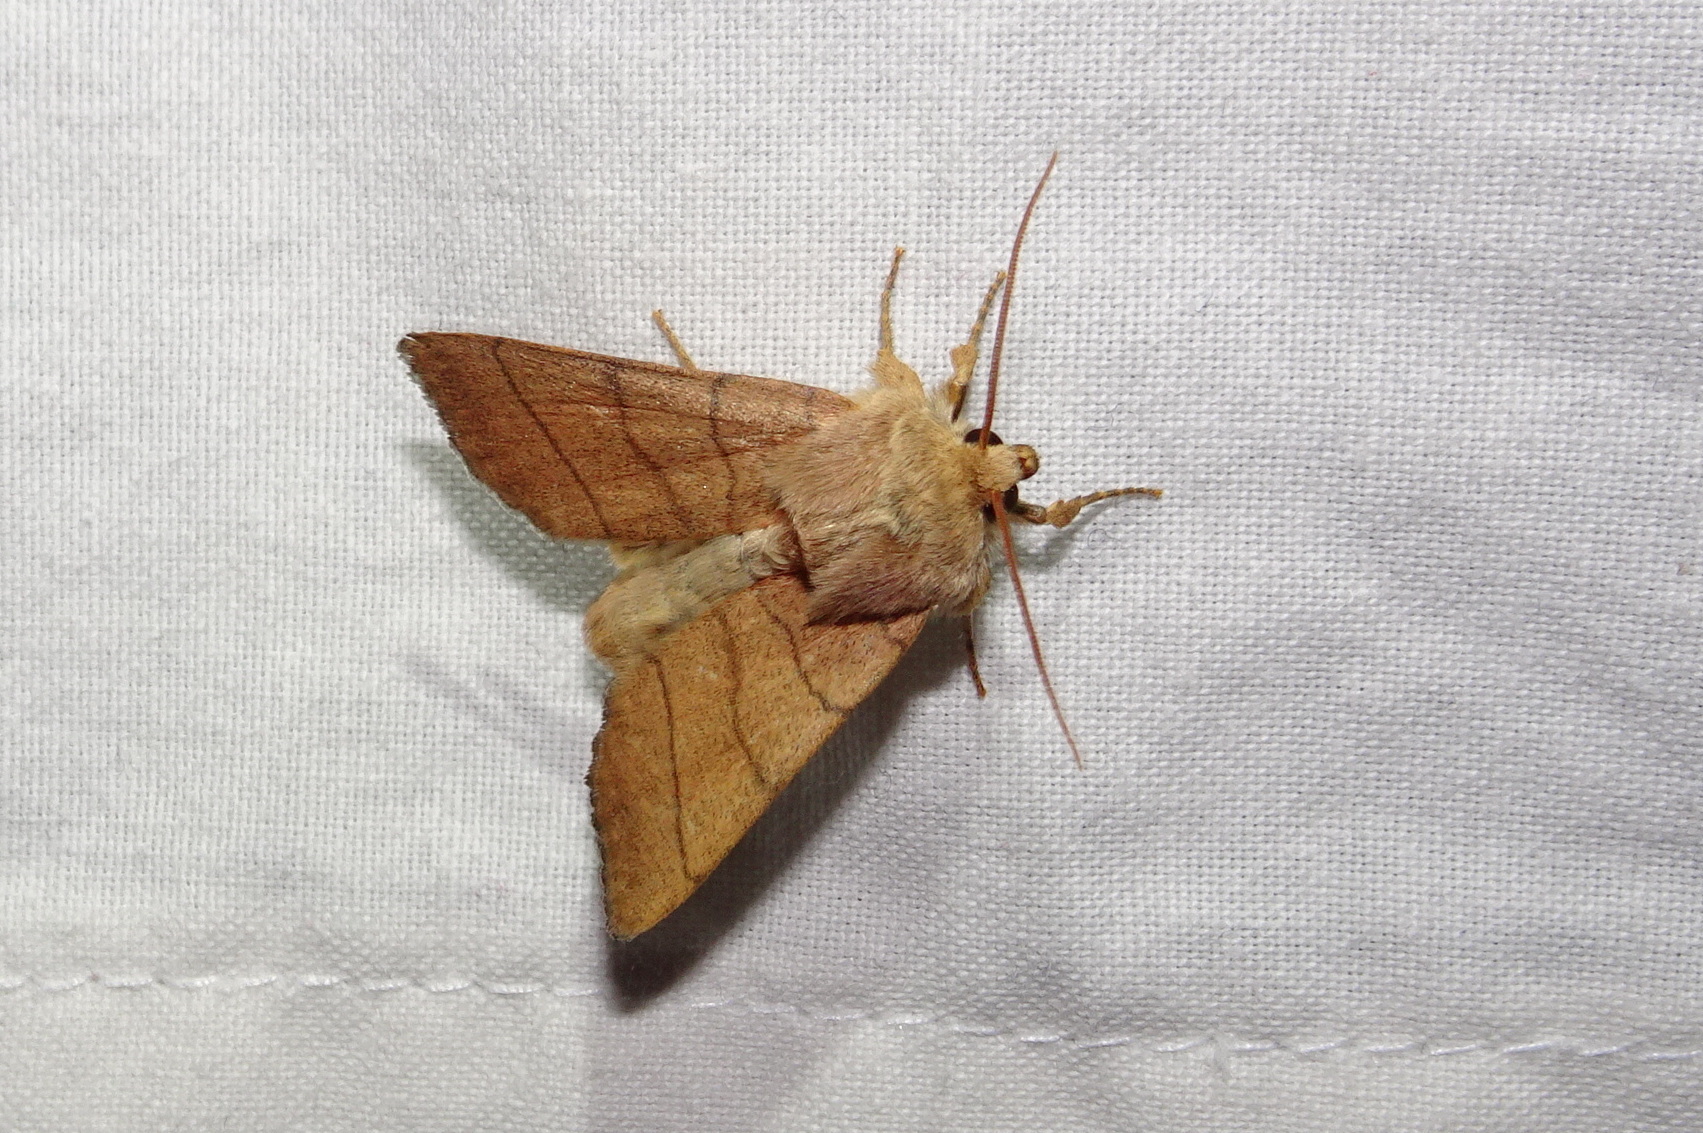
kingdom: Animalia
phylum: Arthropoda
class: Insecta
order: Lepidoptera
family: Noctuidae
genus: Charanyca
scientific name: Charanyca trigrammica
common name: Treble lines
